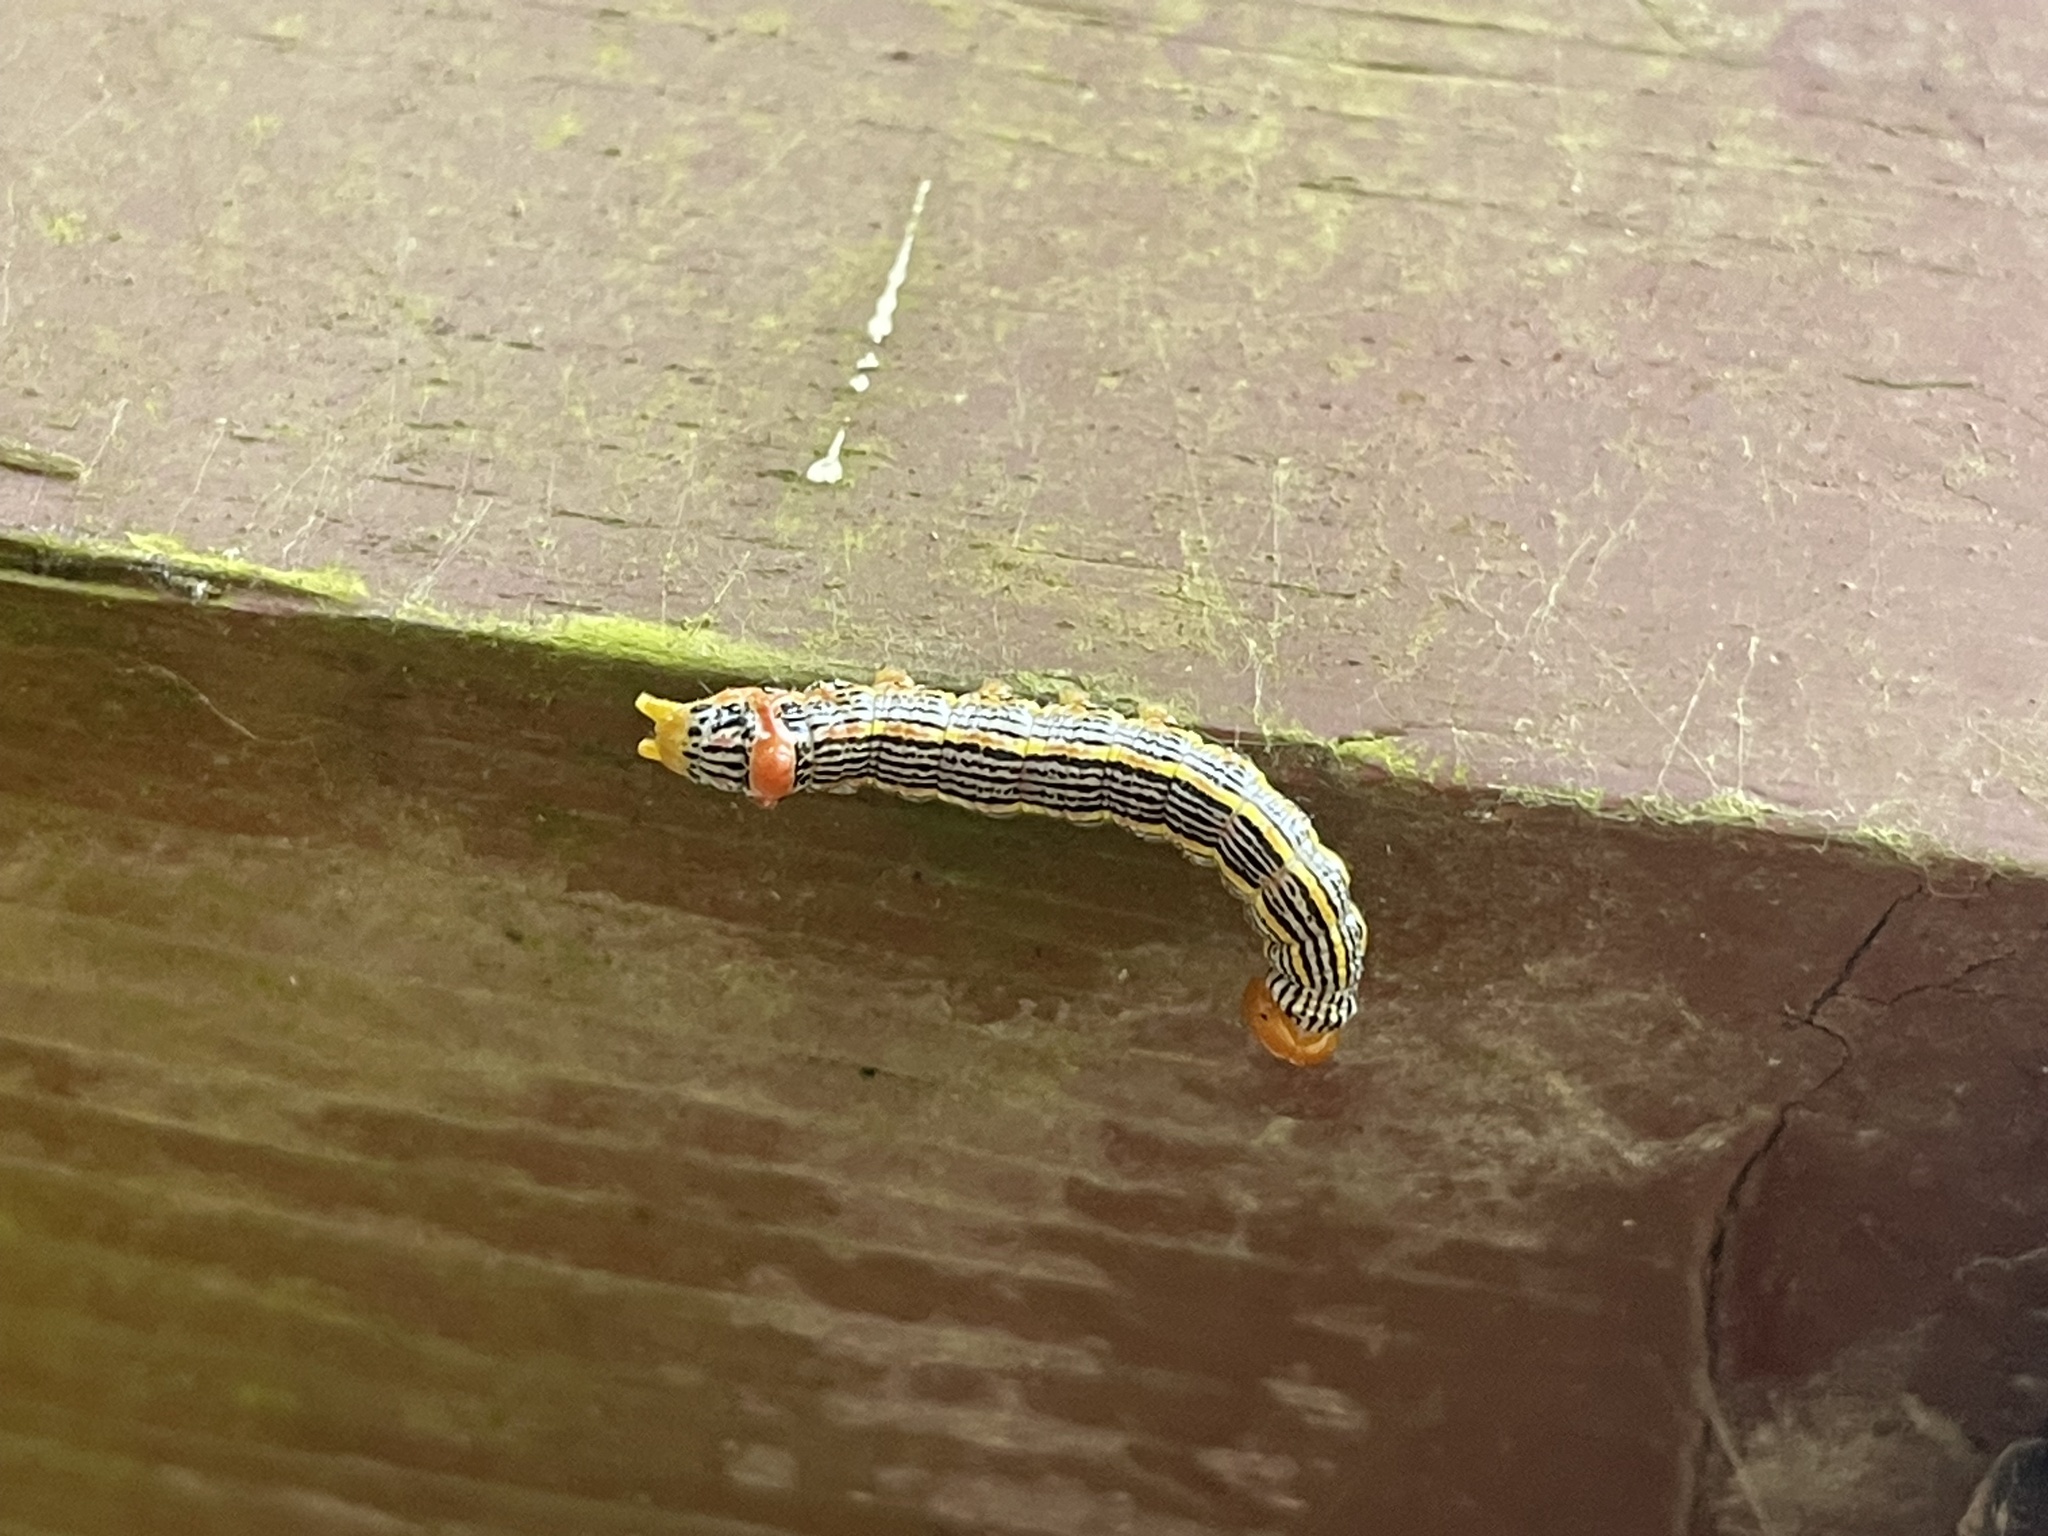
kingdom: Animalia
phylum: Arthropoda
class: Insecta
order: Lepidoptera
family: Notodontidae
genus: Symmerista
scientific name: Symmerista albifrons
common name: White-headed prominent
